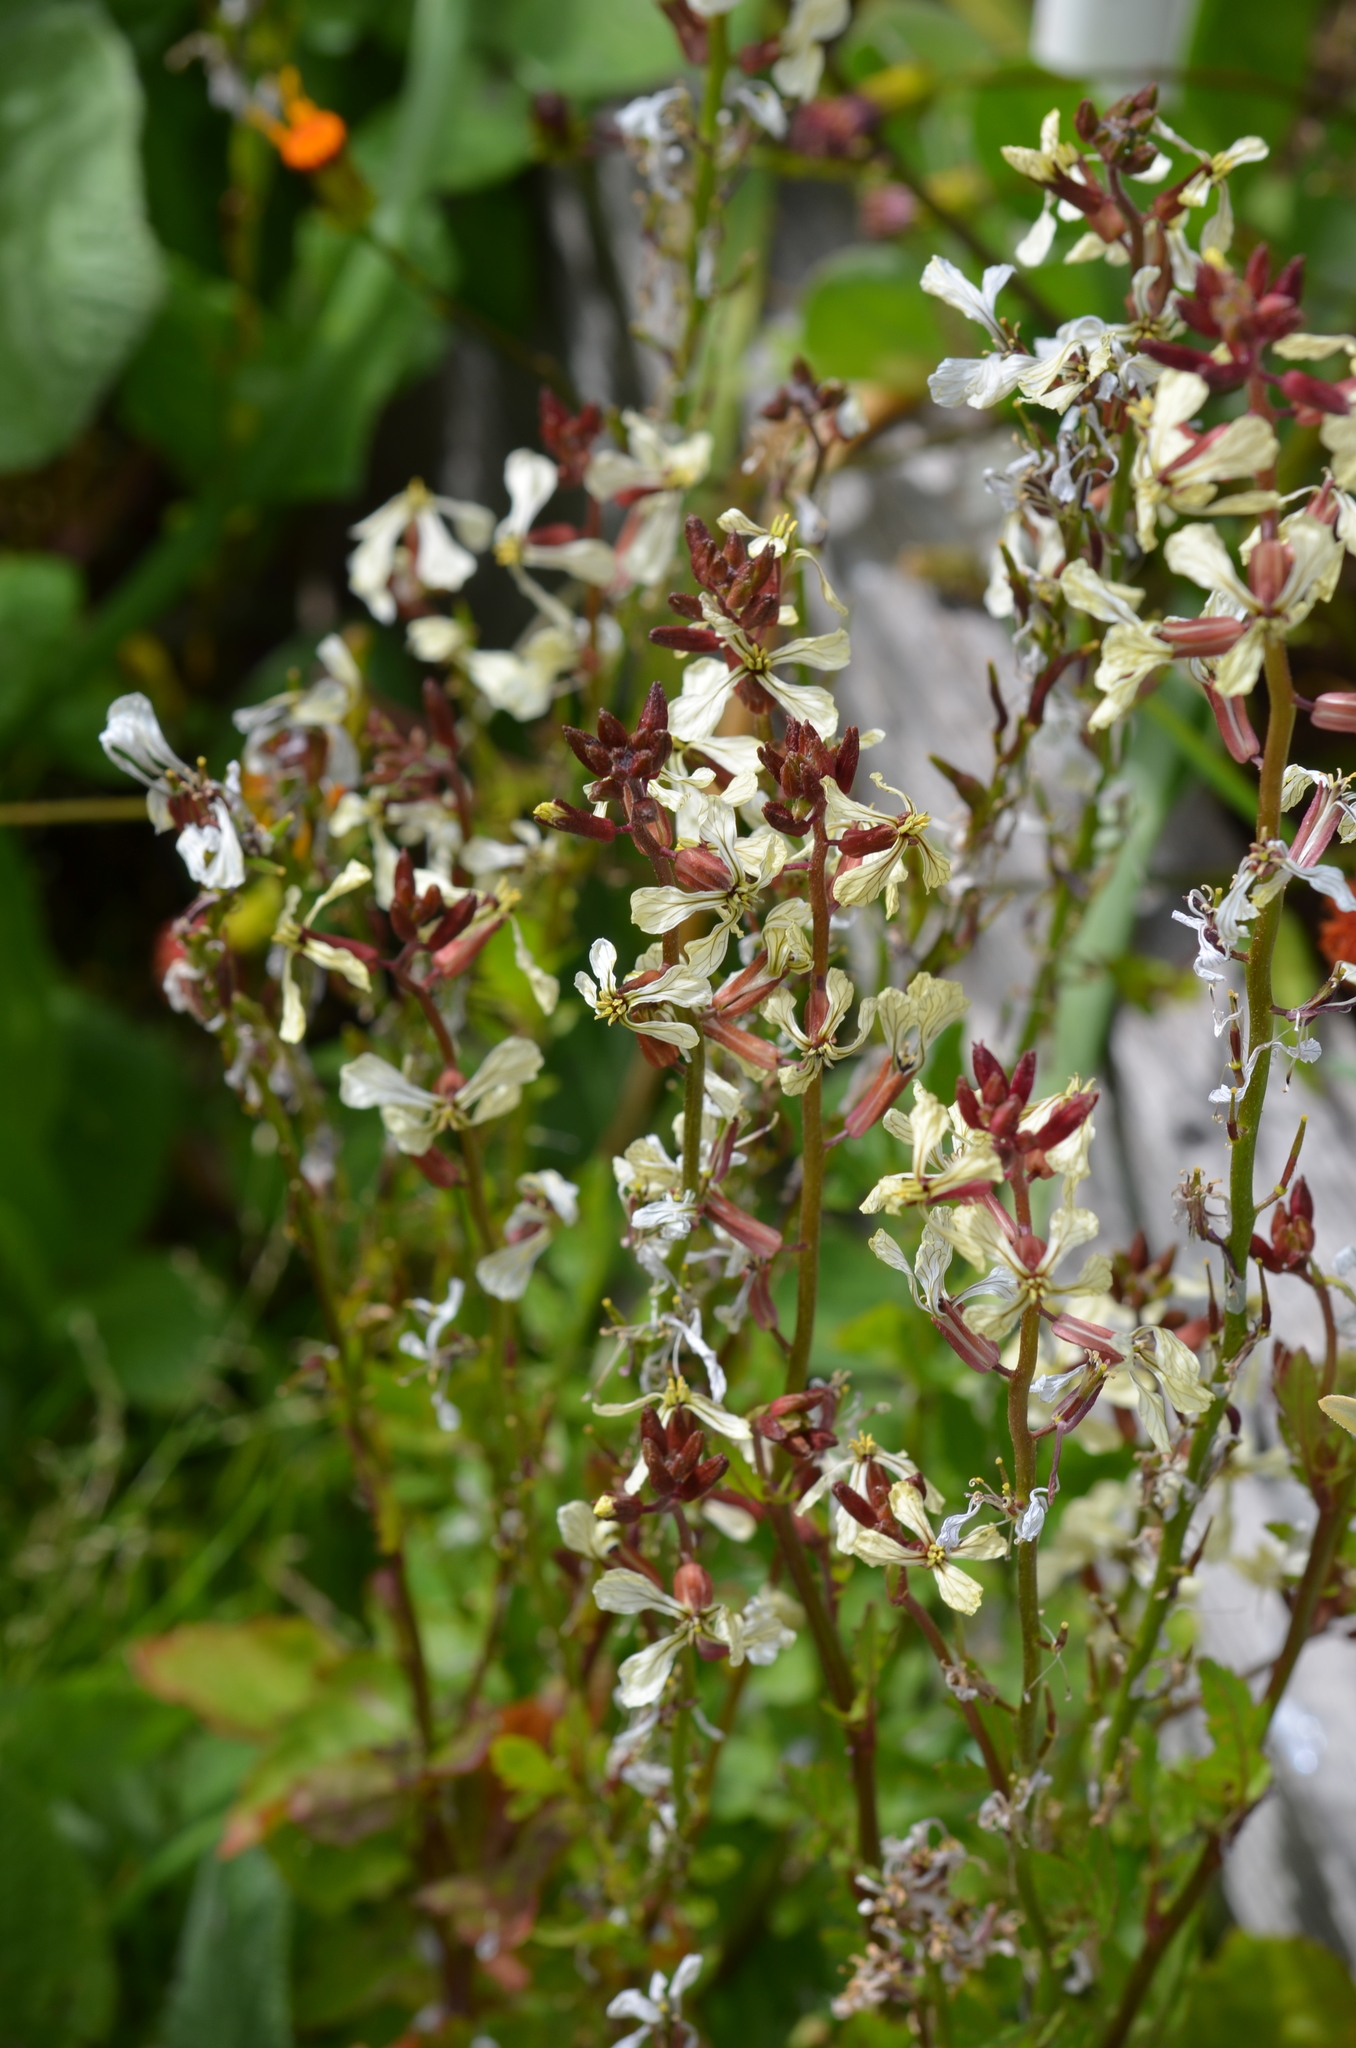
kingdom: Plantae
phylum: Tracheophyta
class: Magnoliopsida
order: Brassicales
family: Brassicaceae
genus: Eruca
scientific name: Eruca vesicaria
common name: Garden rocket
